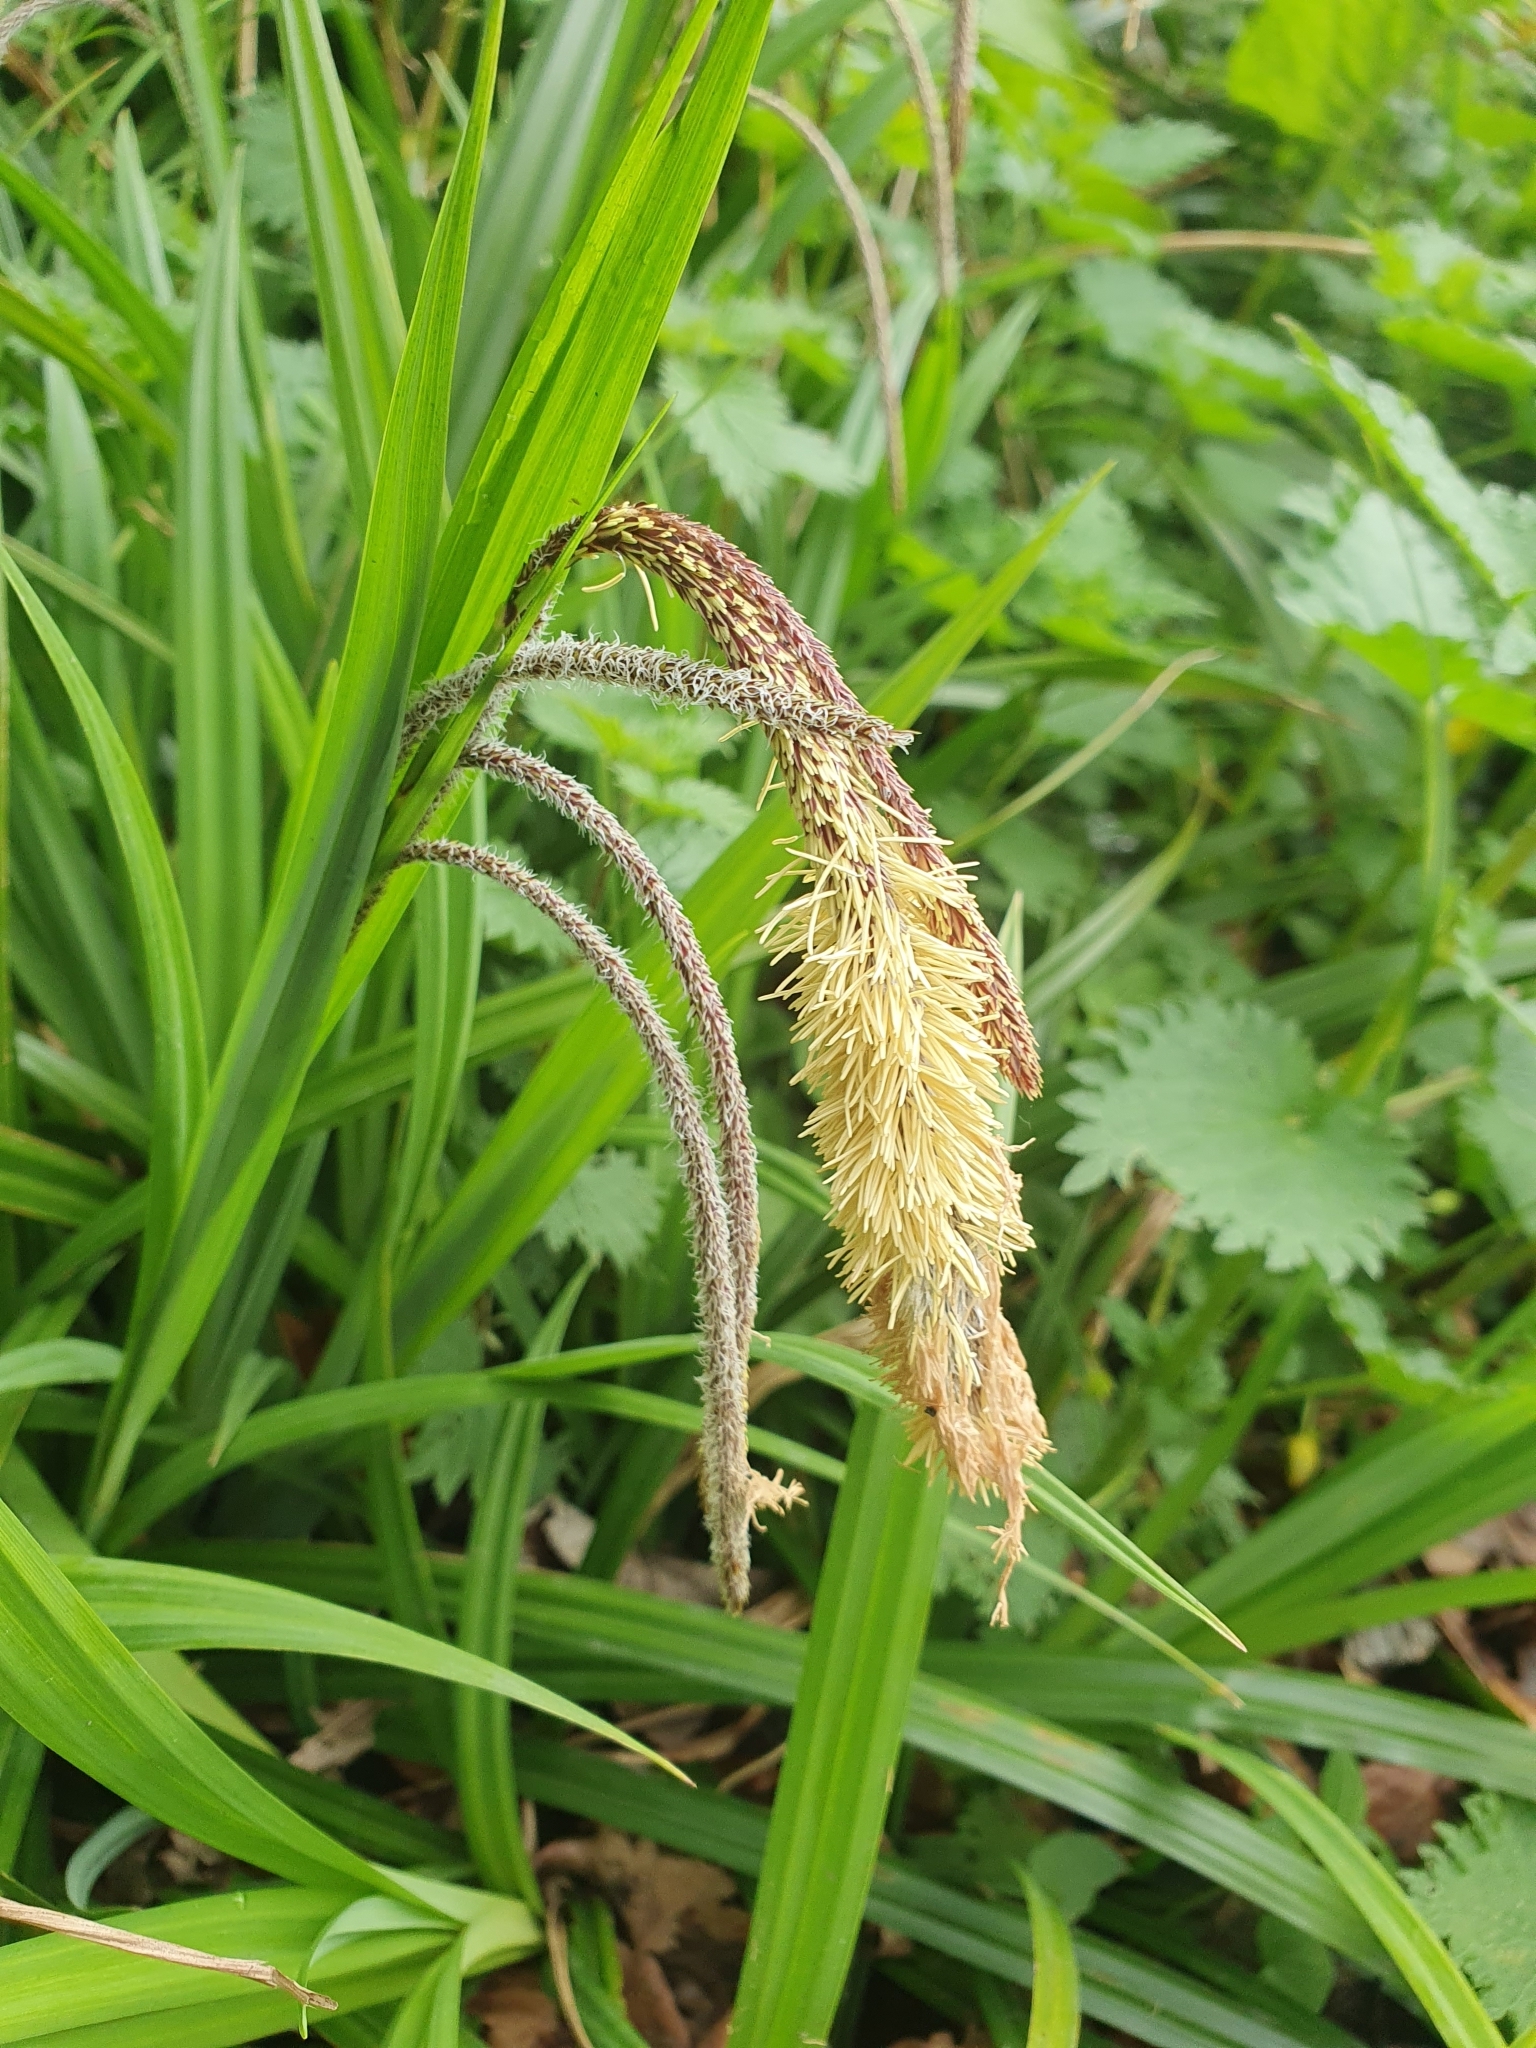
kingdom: Plantae
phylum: Tracheophyta
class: Liliopsida
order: Poales
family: Cyperaceae
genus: Carex
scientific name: Carex pendula
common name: Pendulous sedge
